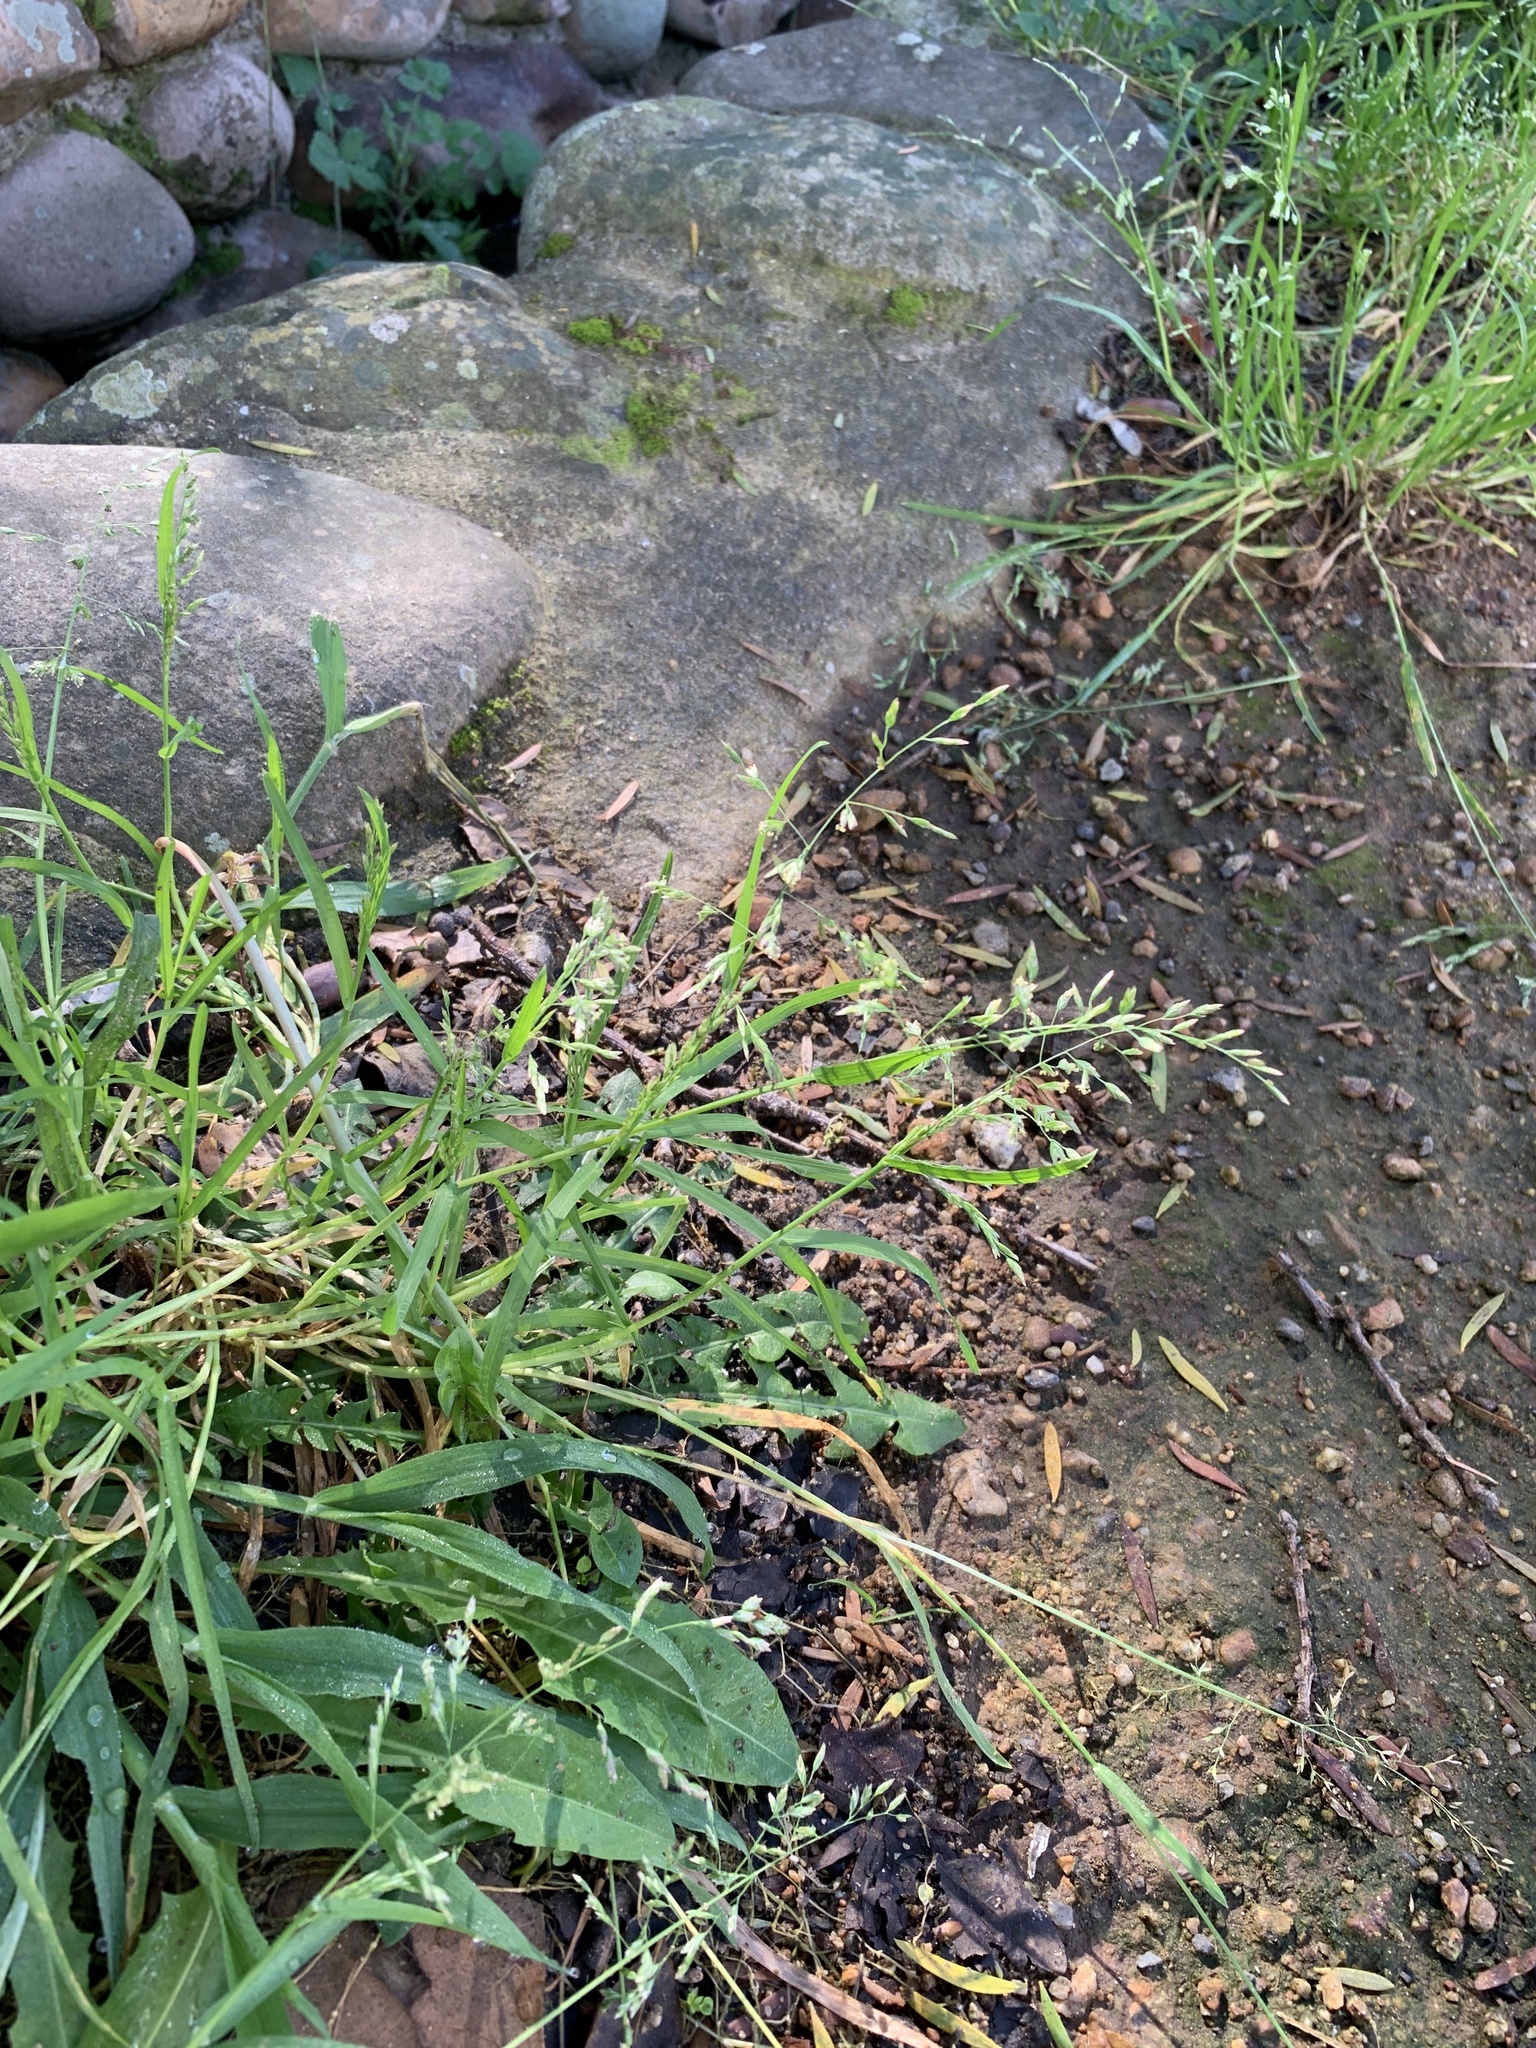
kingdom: Plantae
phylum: Tracheophyta
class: Liliopsida
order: Poales
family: Poaceae
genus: Poa
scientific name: Poa annua
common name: Annual bluegrass
